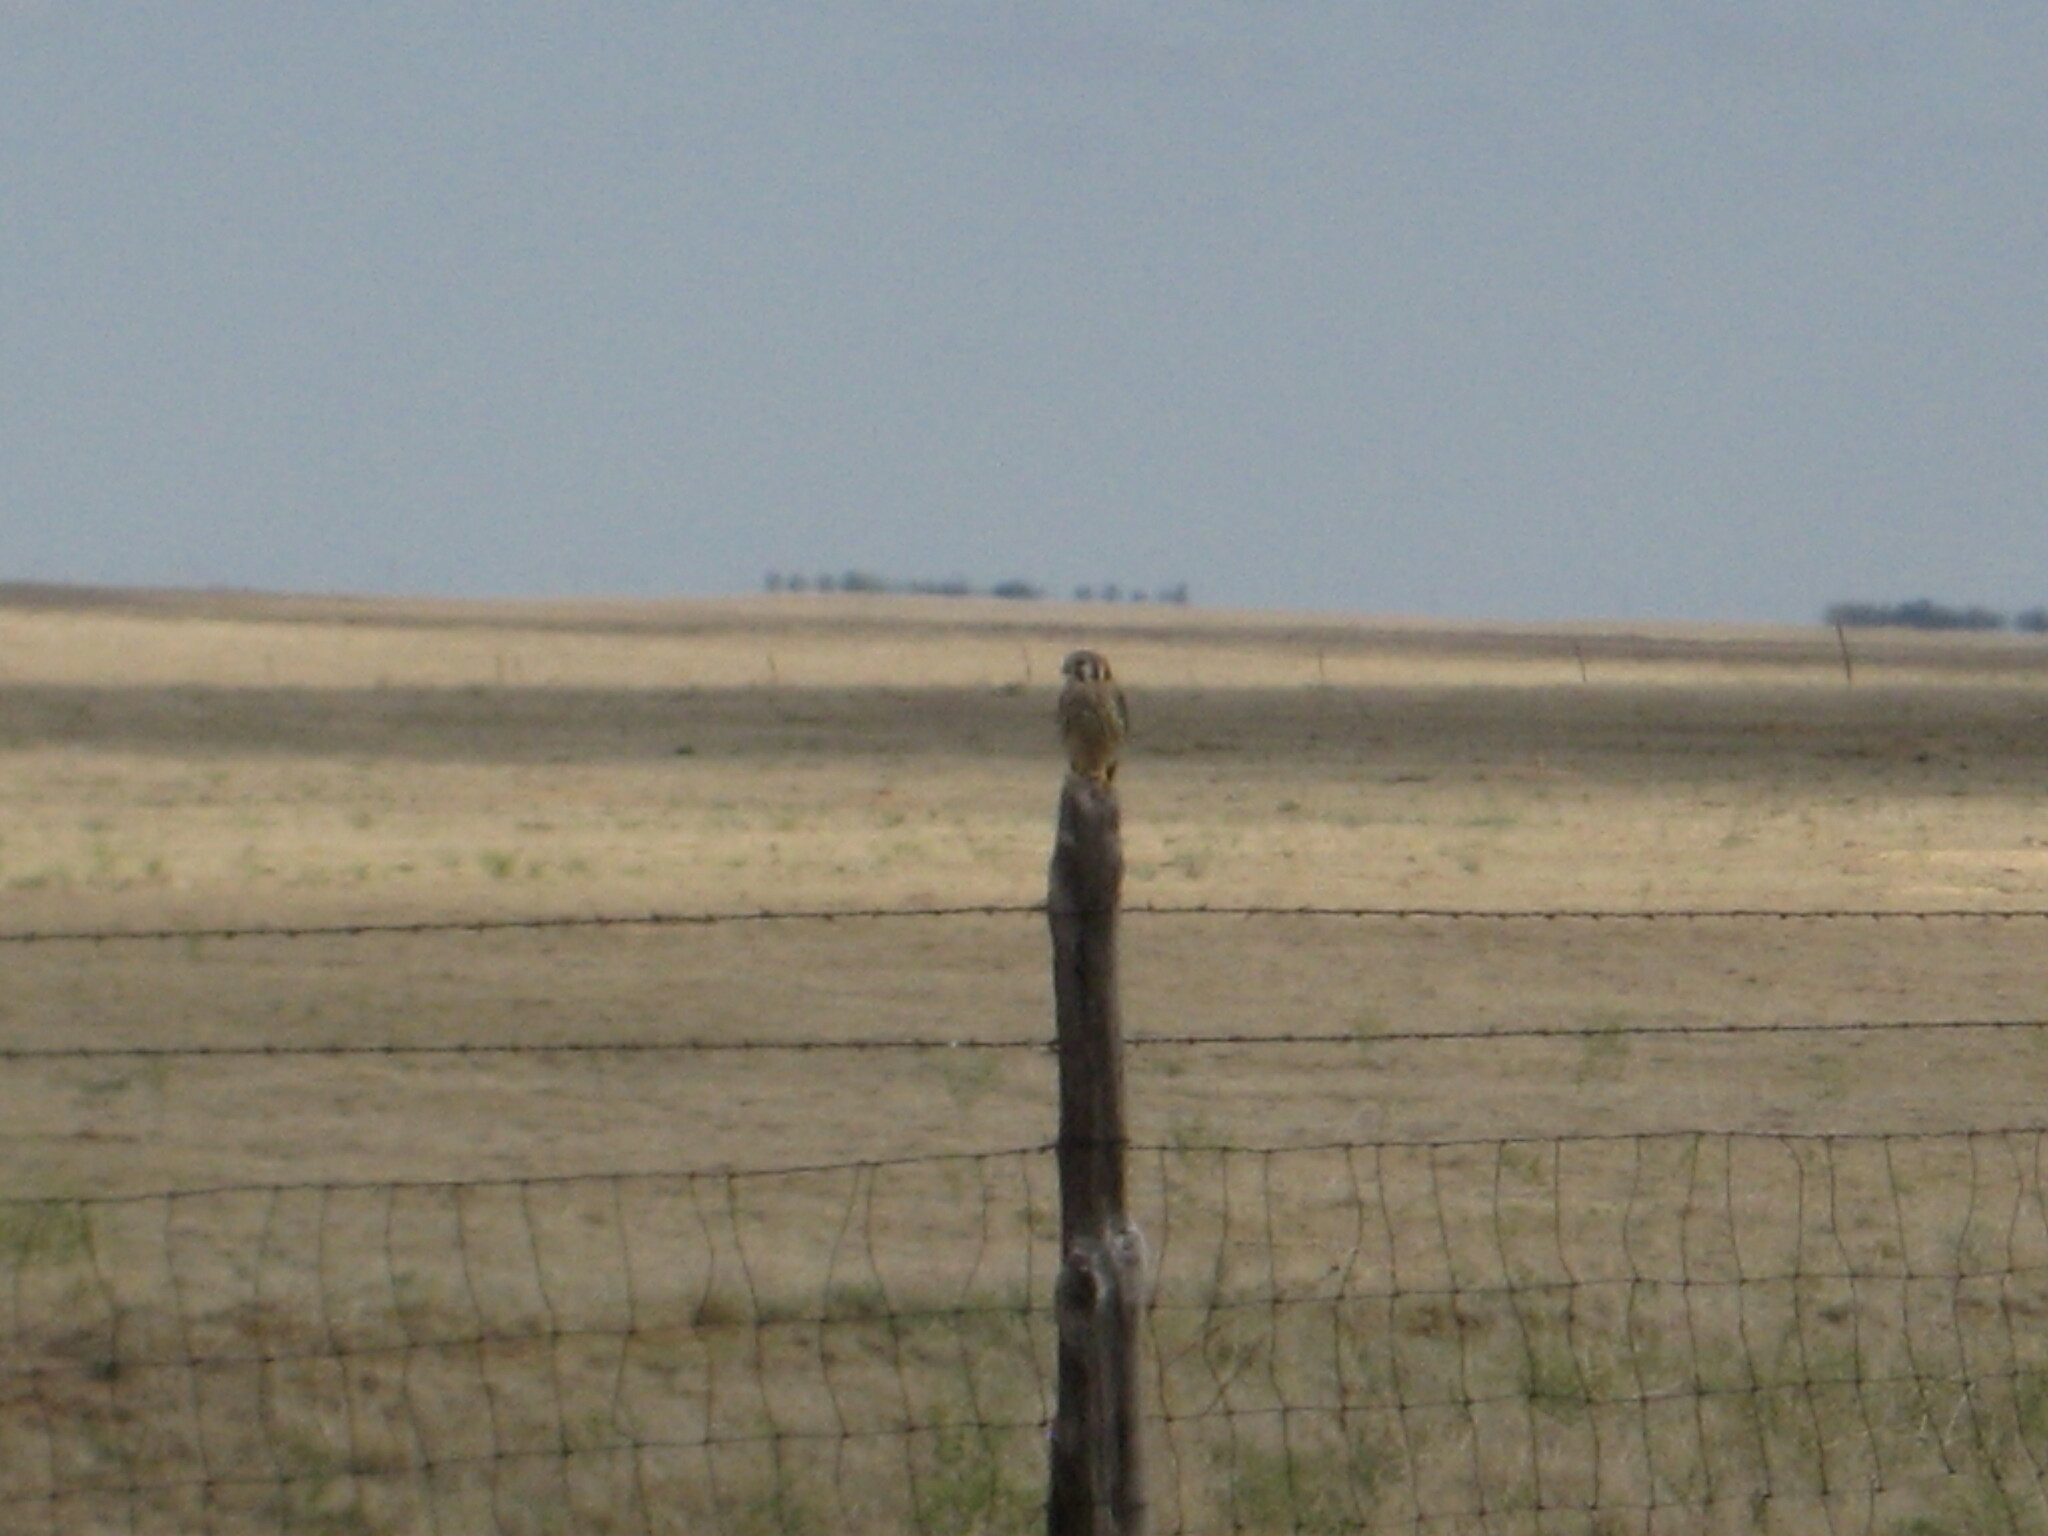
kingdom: Animalia
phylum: Chordata
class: Aves
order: Falconiformes
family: Falconidae
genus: Falco
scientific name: Falco sparverius
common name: American kestrel
